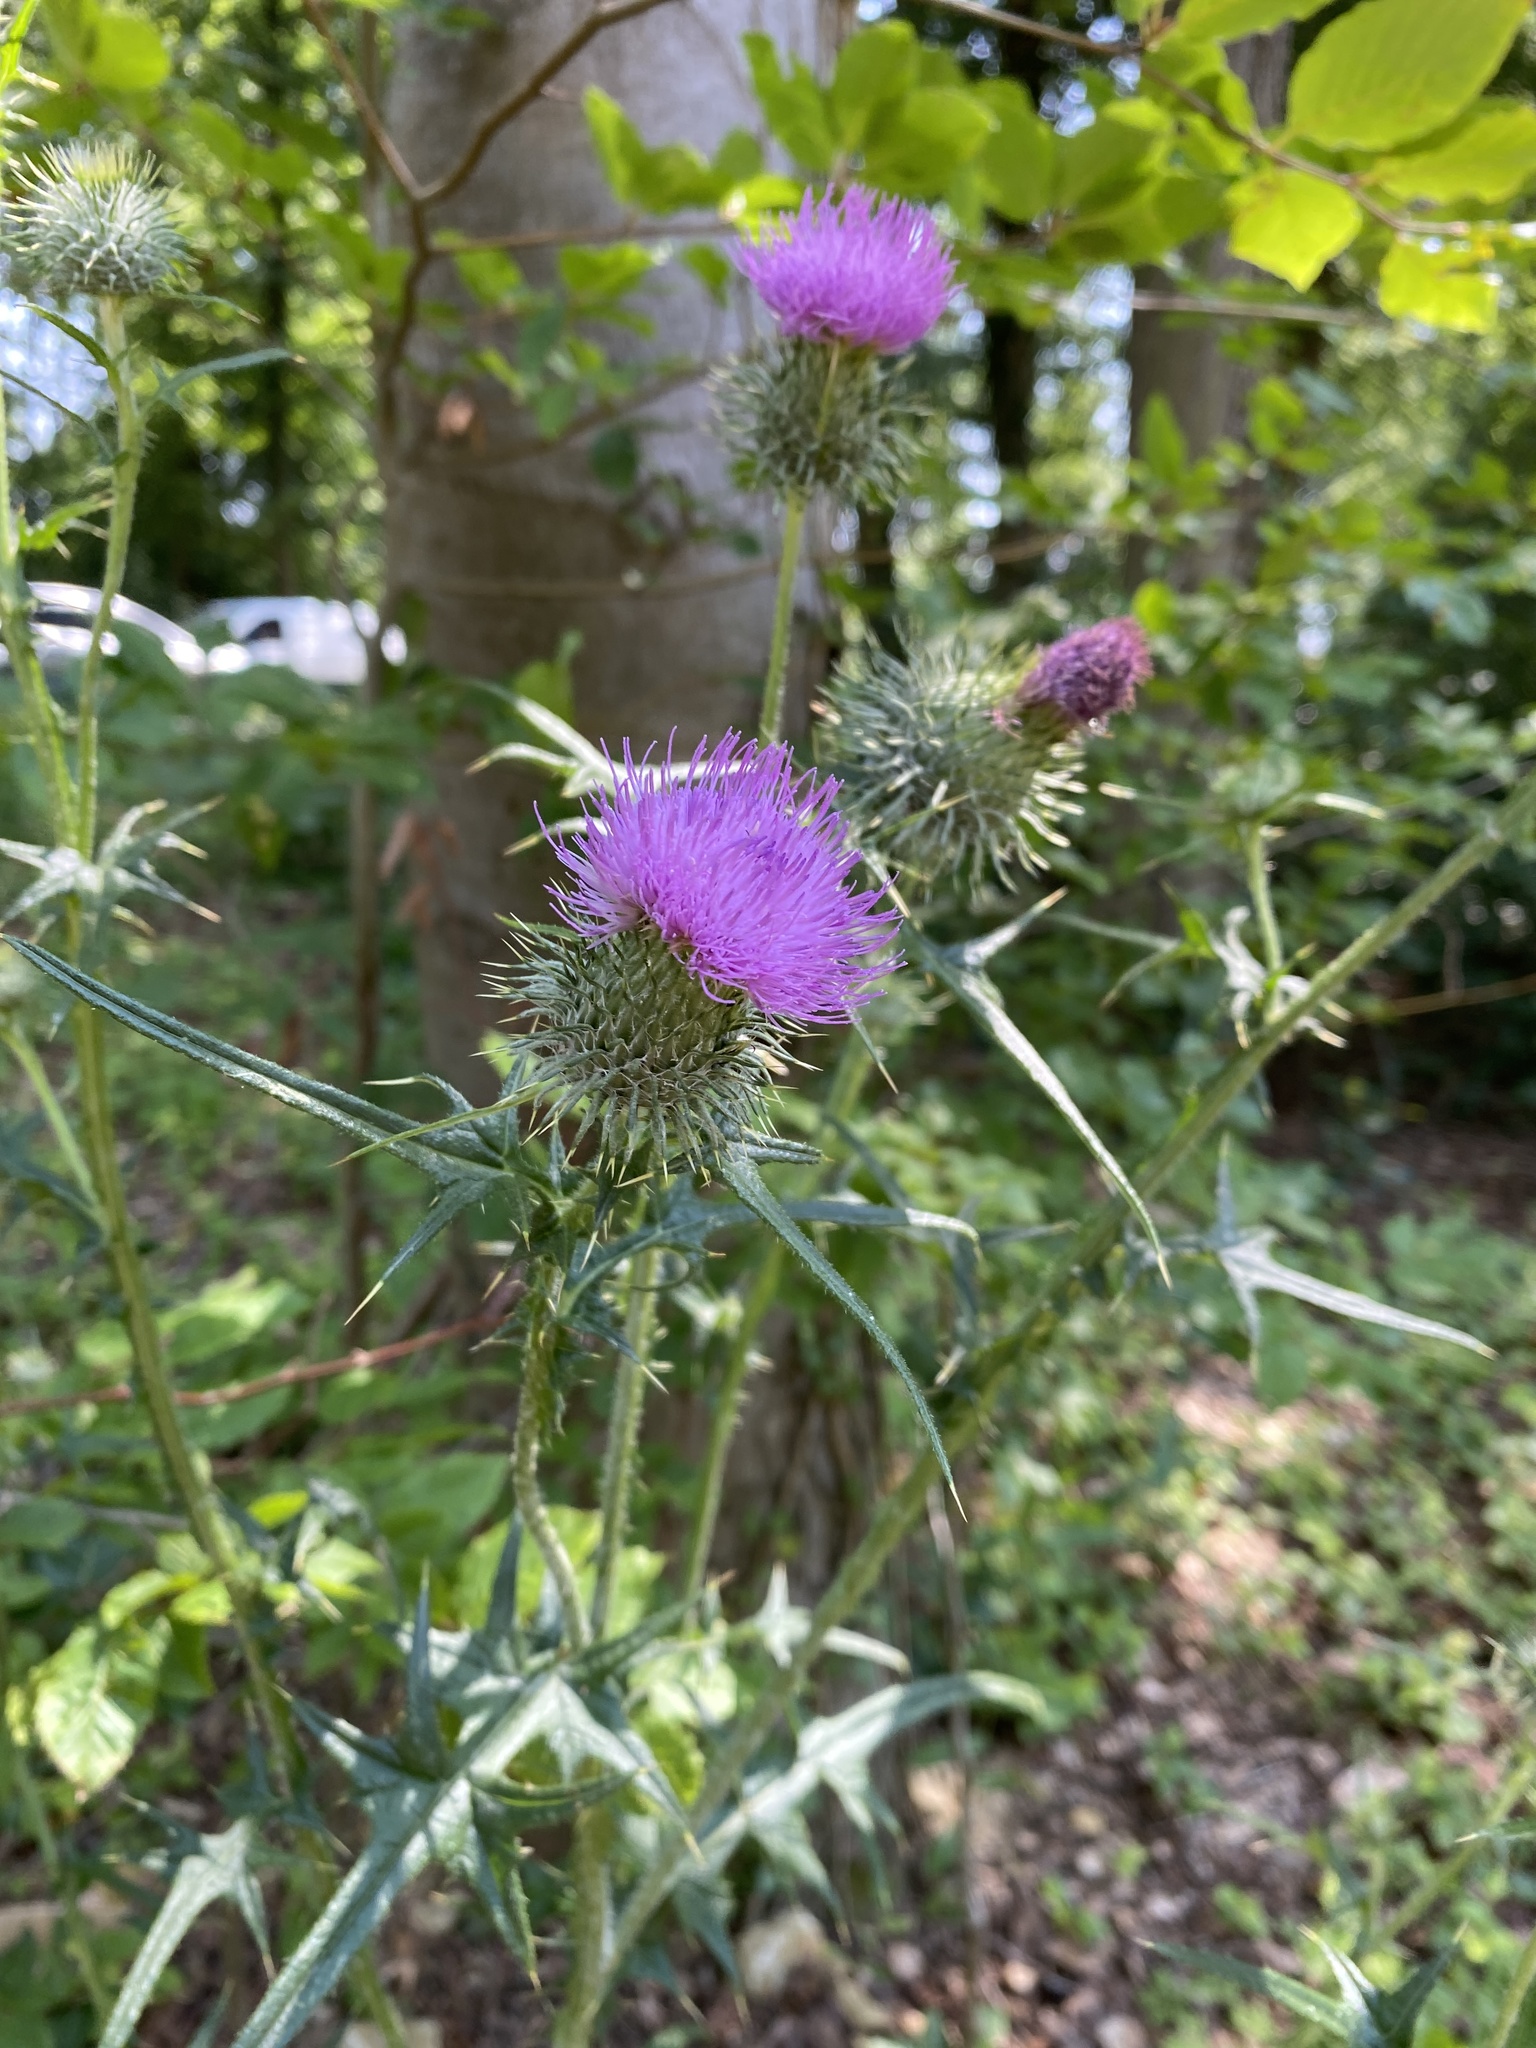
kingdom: Plantae
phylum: Tracheophyta
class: Magnoliopsida
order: Asterales
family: Asteraceae
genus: Cirsium
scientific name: Cirsium vulgare
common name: Bull thistle
